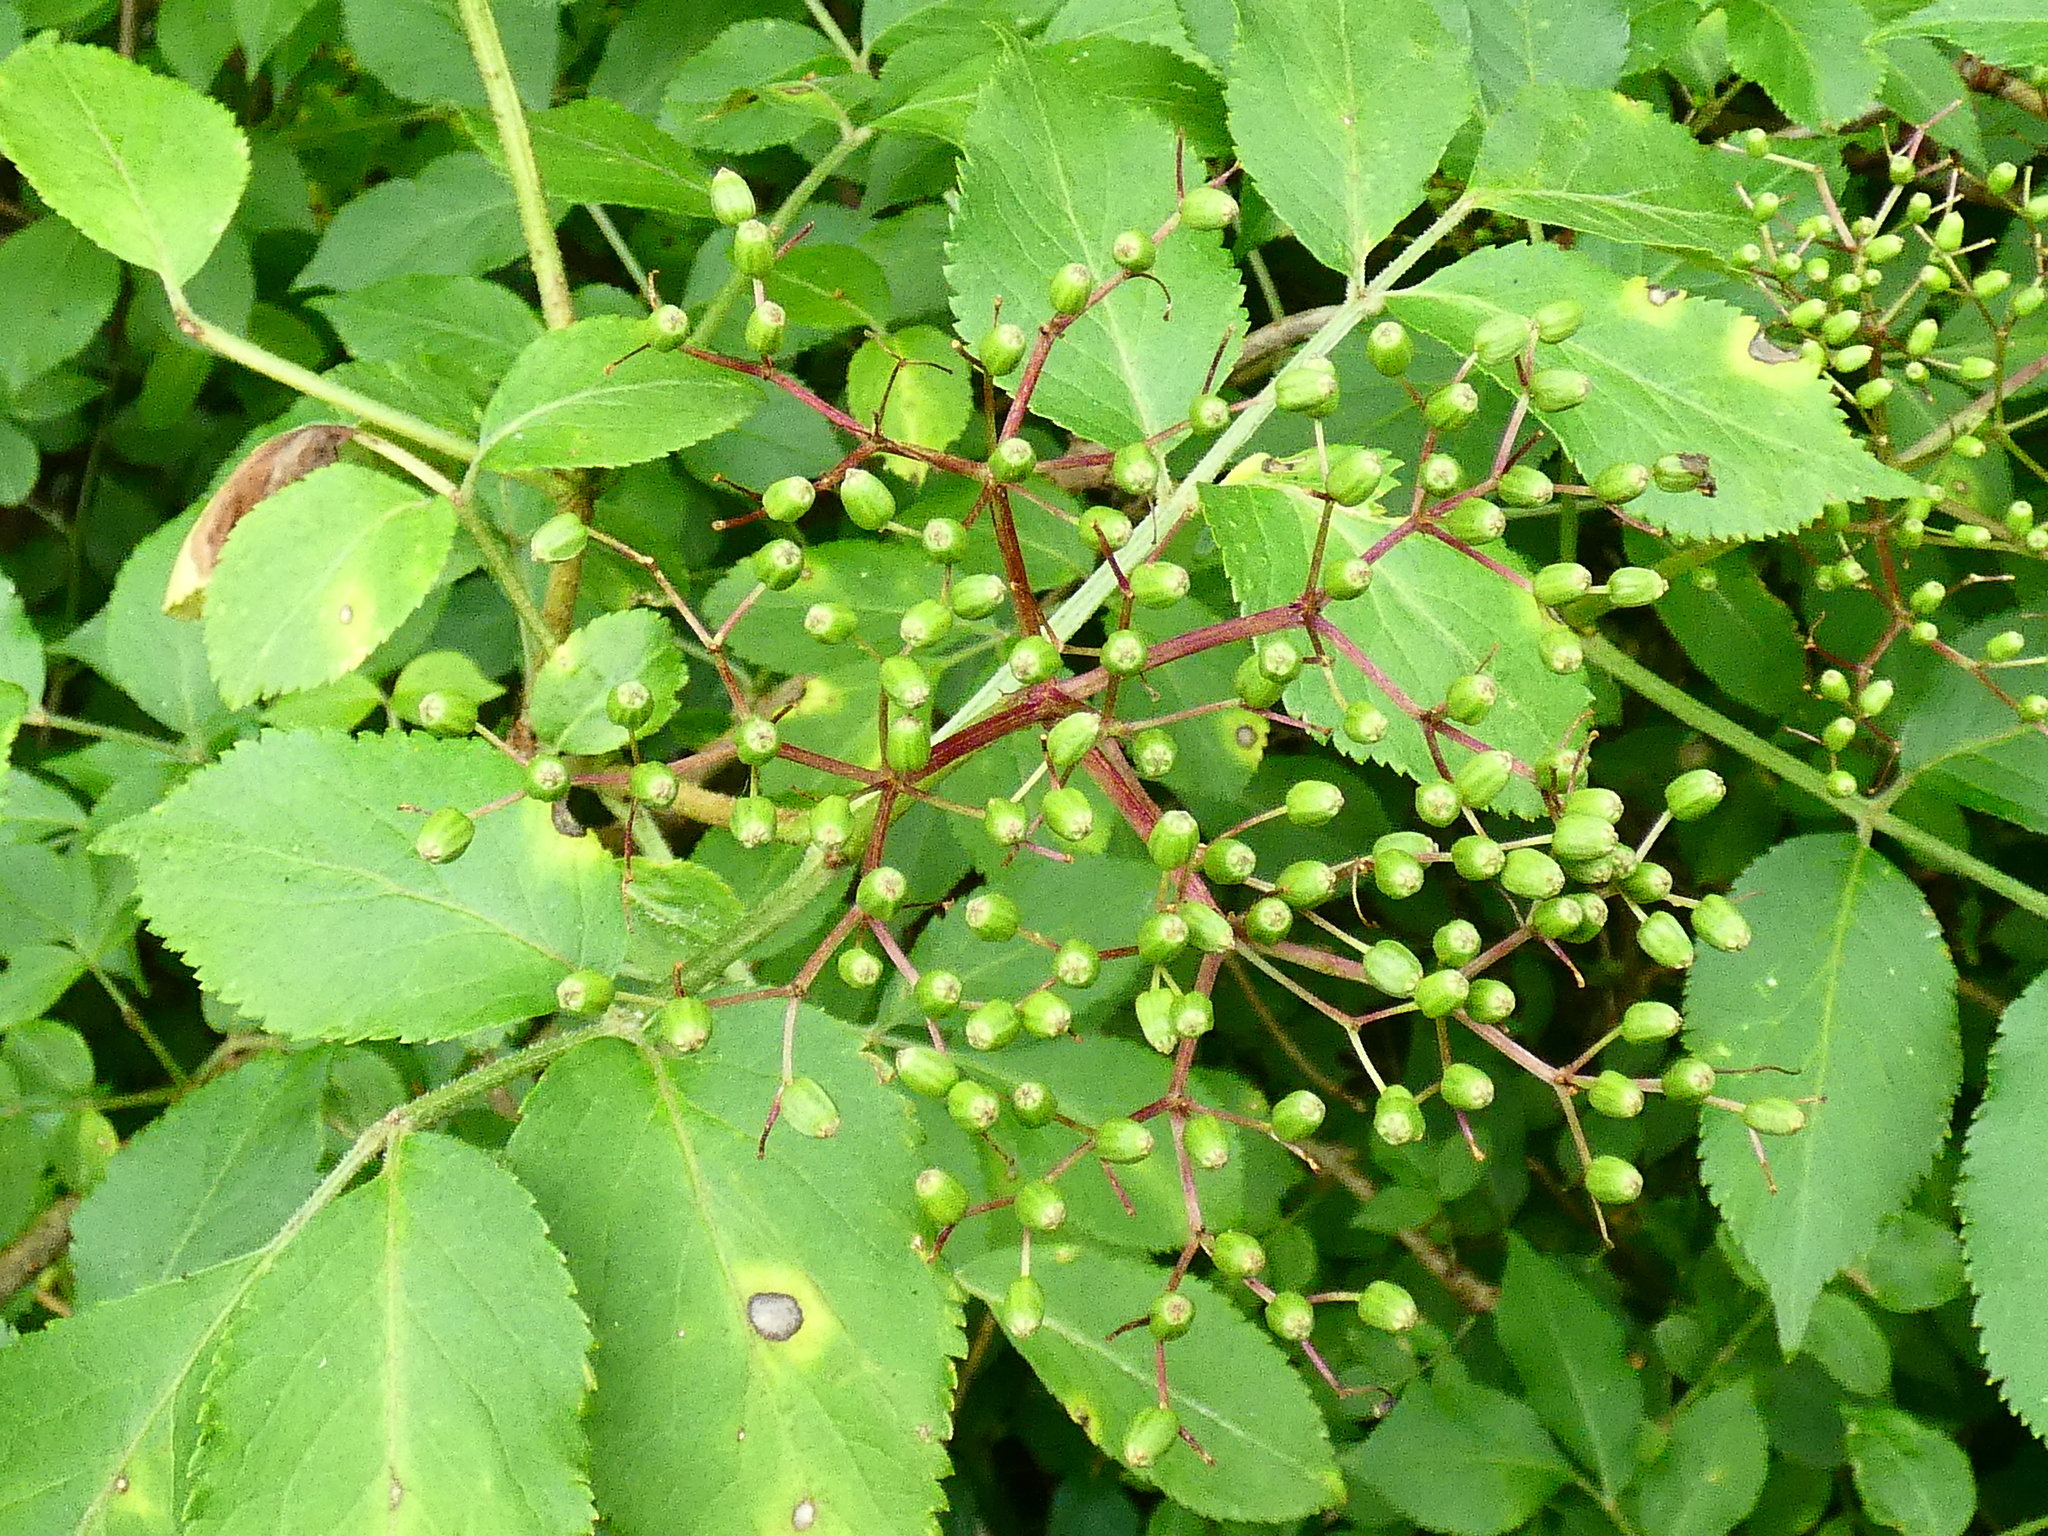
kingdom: Plantae
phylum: Tracheophyta
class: Magnoliopsida
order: Dipsacales
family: Viburnaceae
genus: Sambucus
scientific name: Sambucus nigra
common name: Elder
